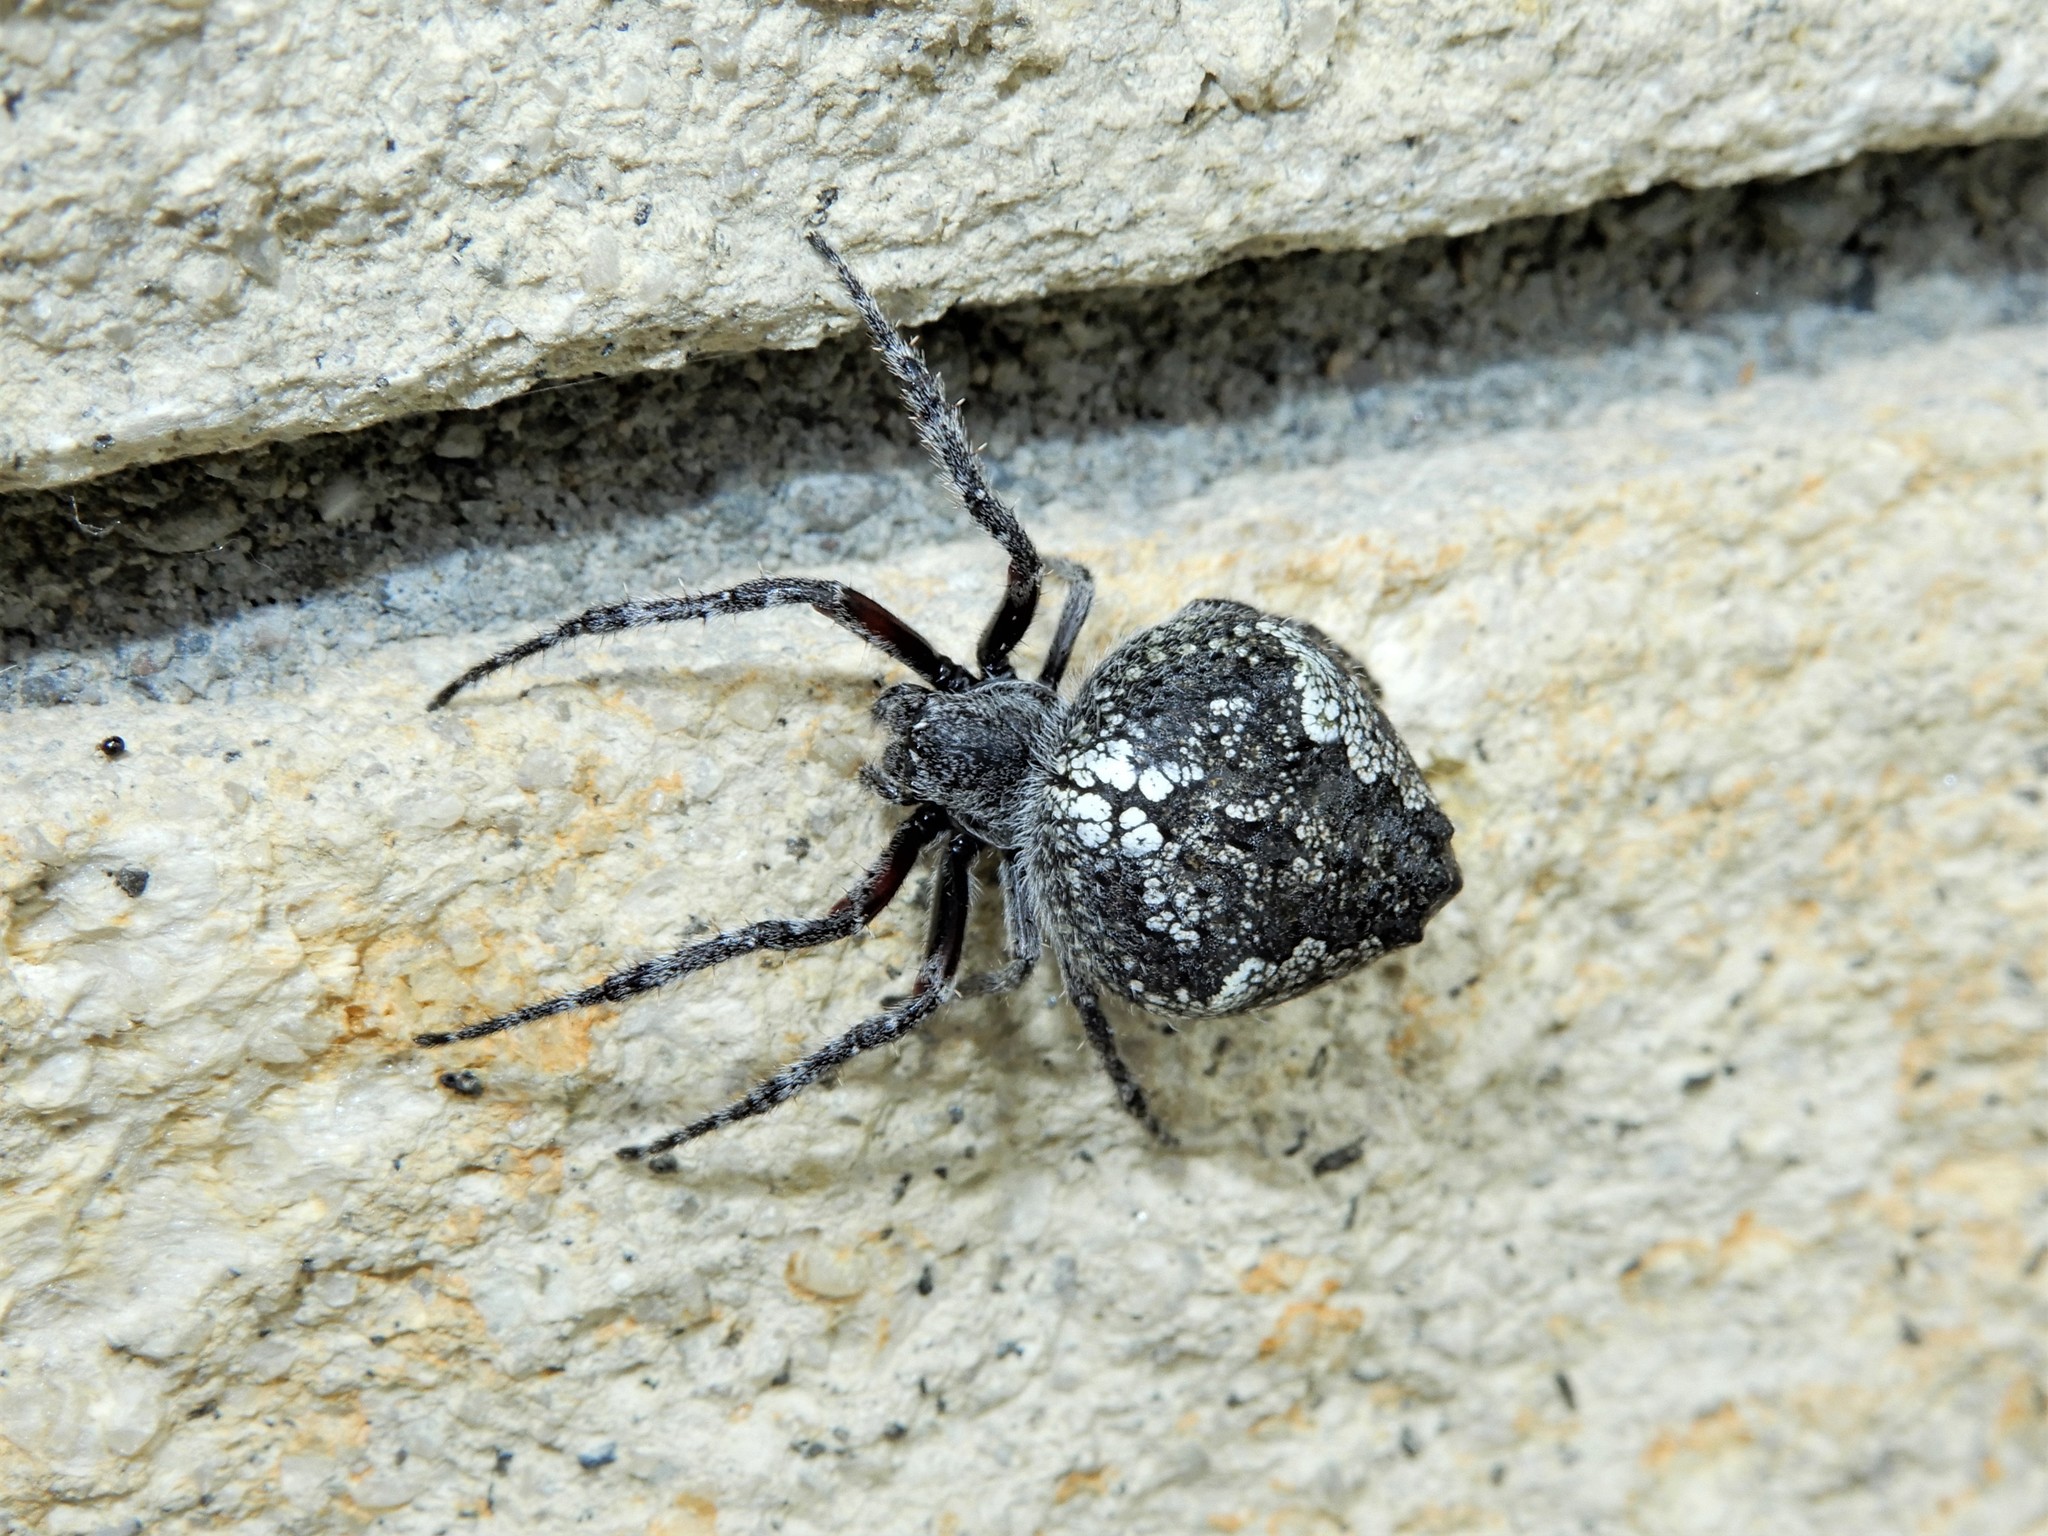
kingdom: Animalia
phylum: Arthropoda
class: Arachnida
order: Araneae
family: Araneidae
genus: Eriophora
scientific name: Eriophora pustulosa
